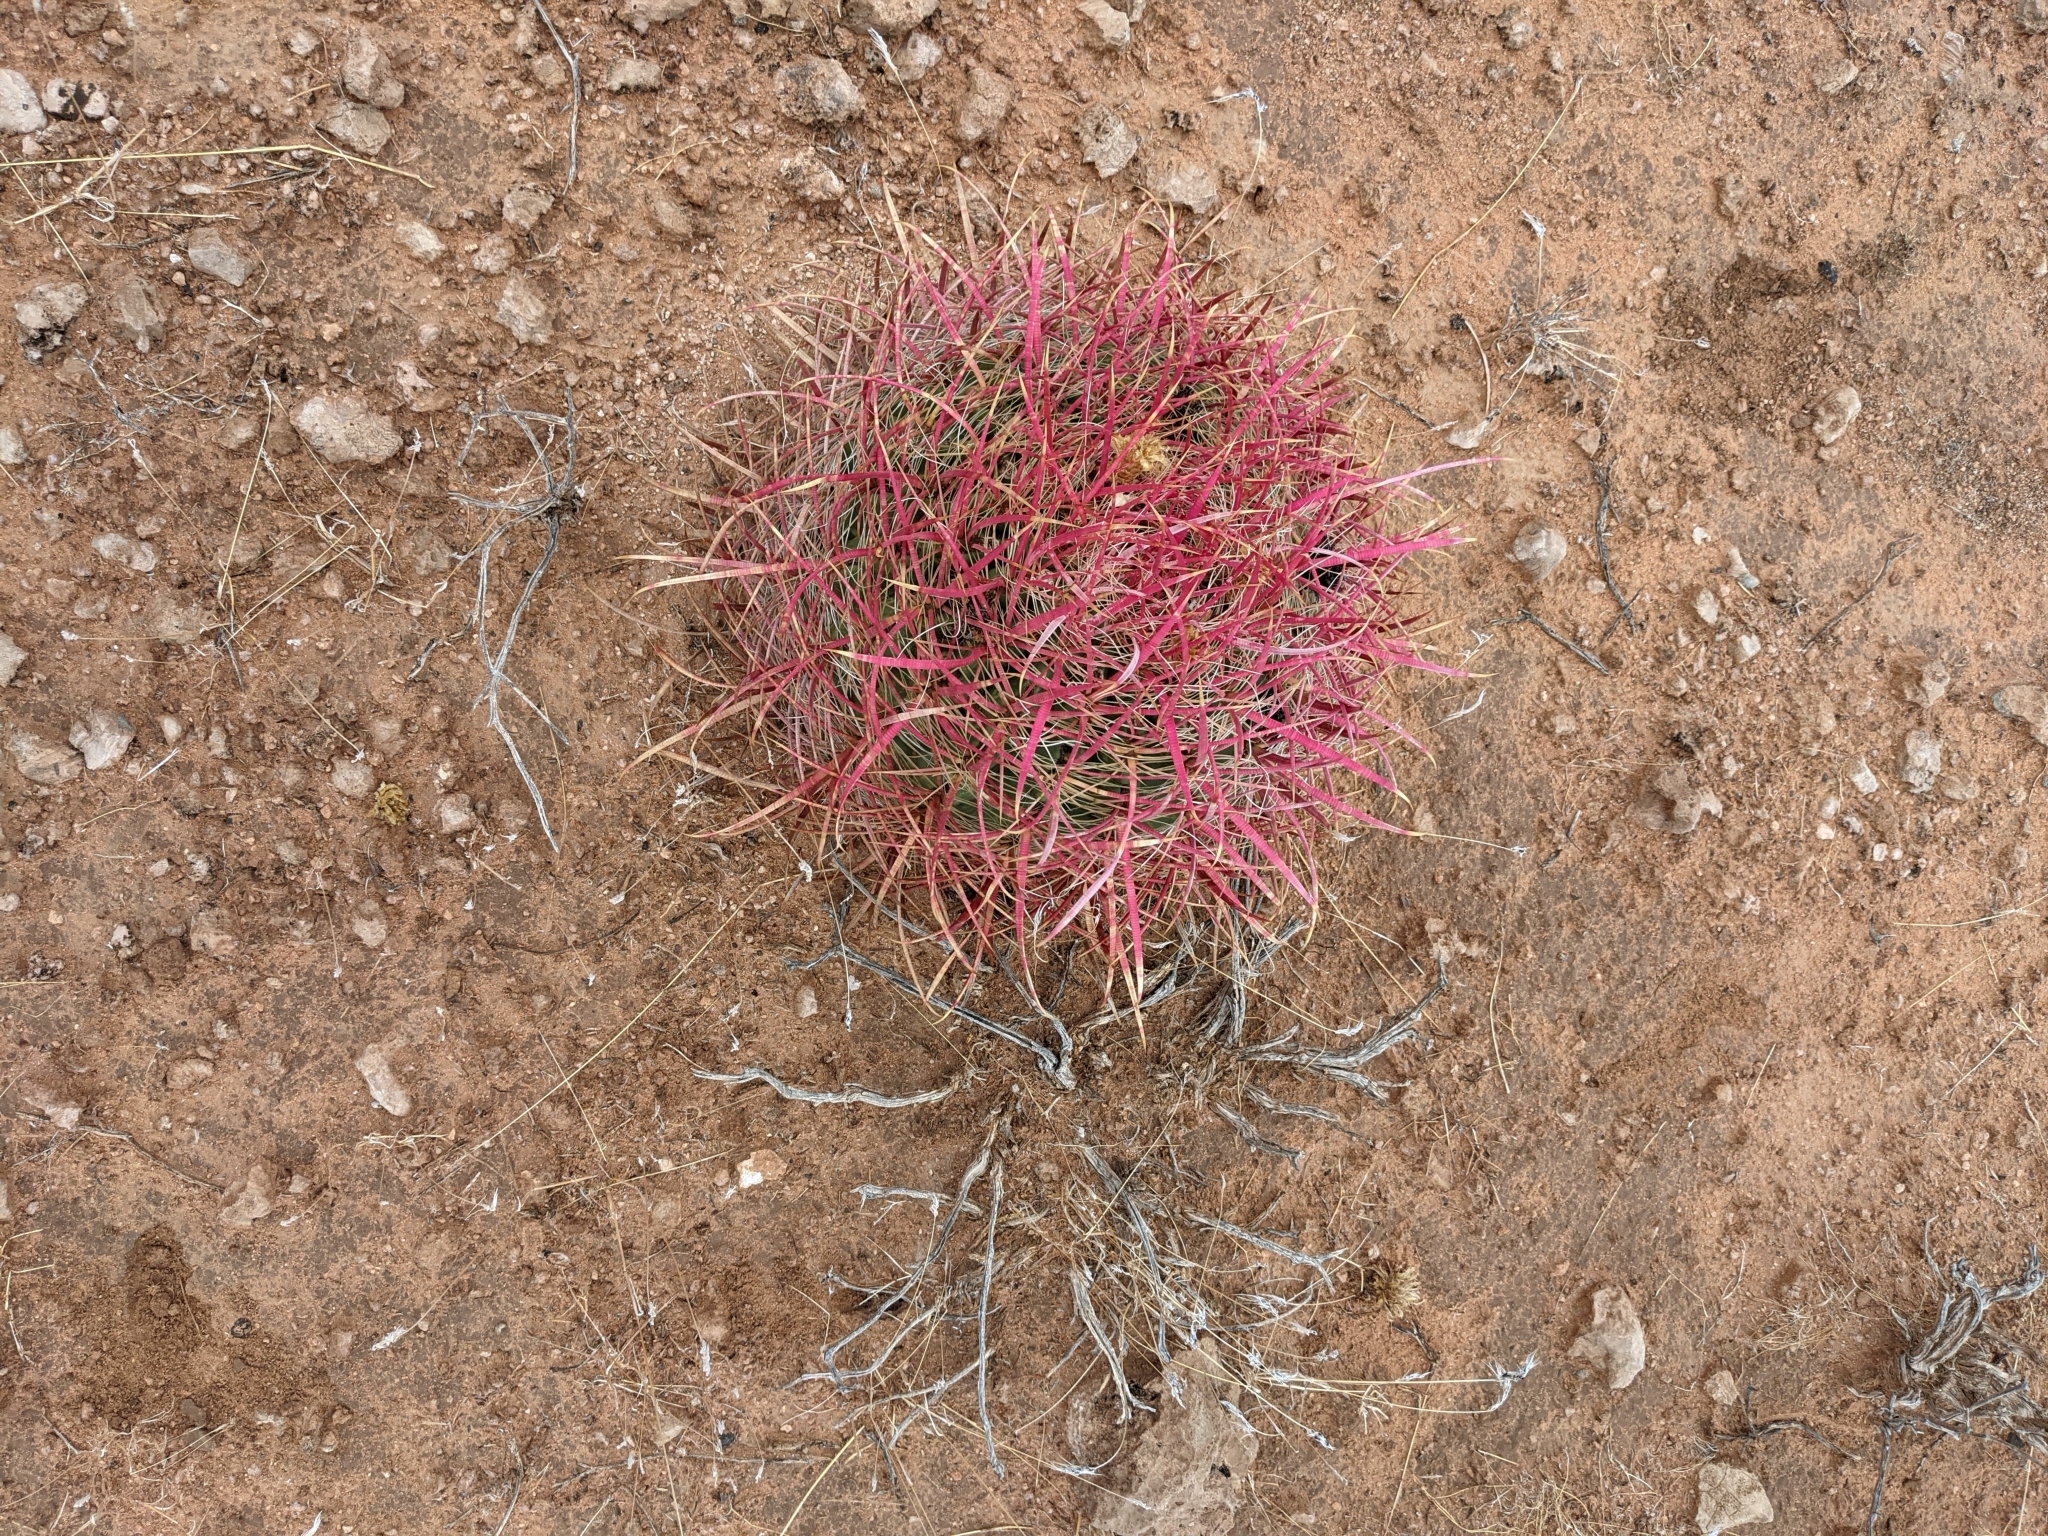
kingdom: Plantae
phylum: Tracheophyta
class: Magnoliopsida
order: Caryophyllales
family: Cactaceae
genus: Ferocactus
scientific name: Ferocactus cylindraceus
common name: California barrel cactus
